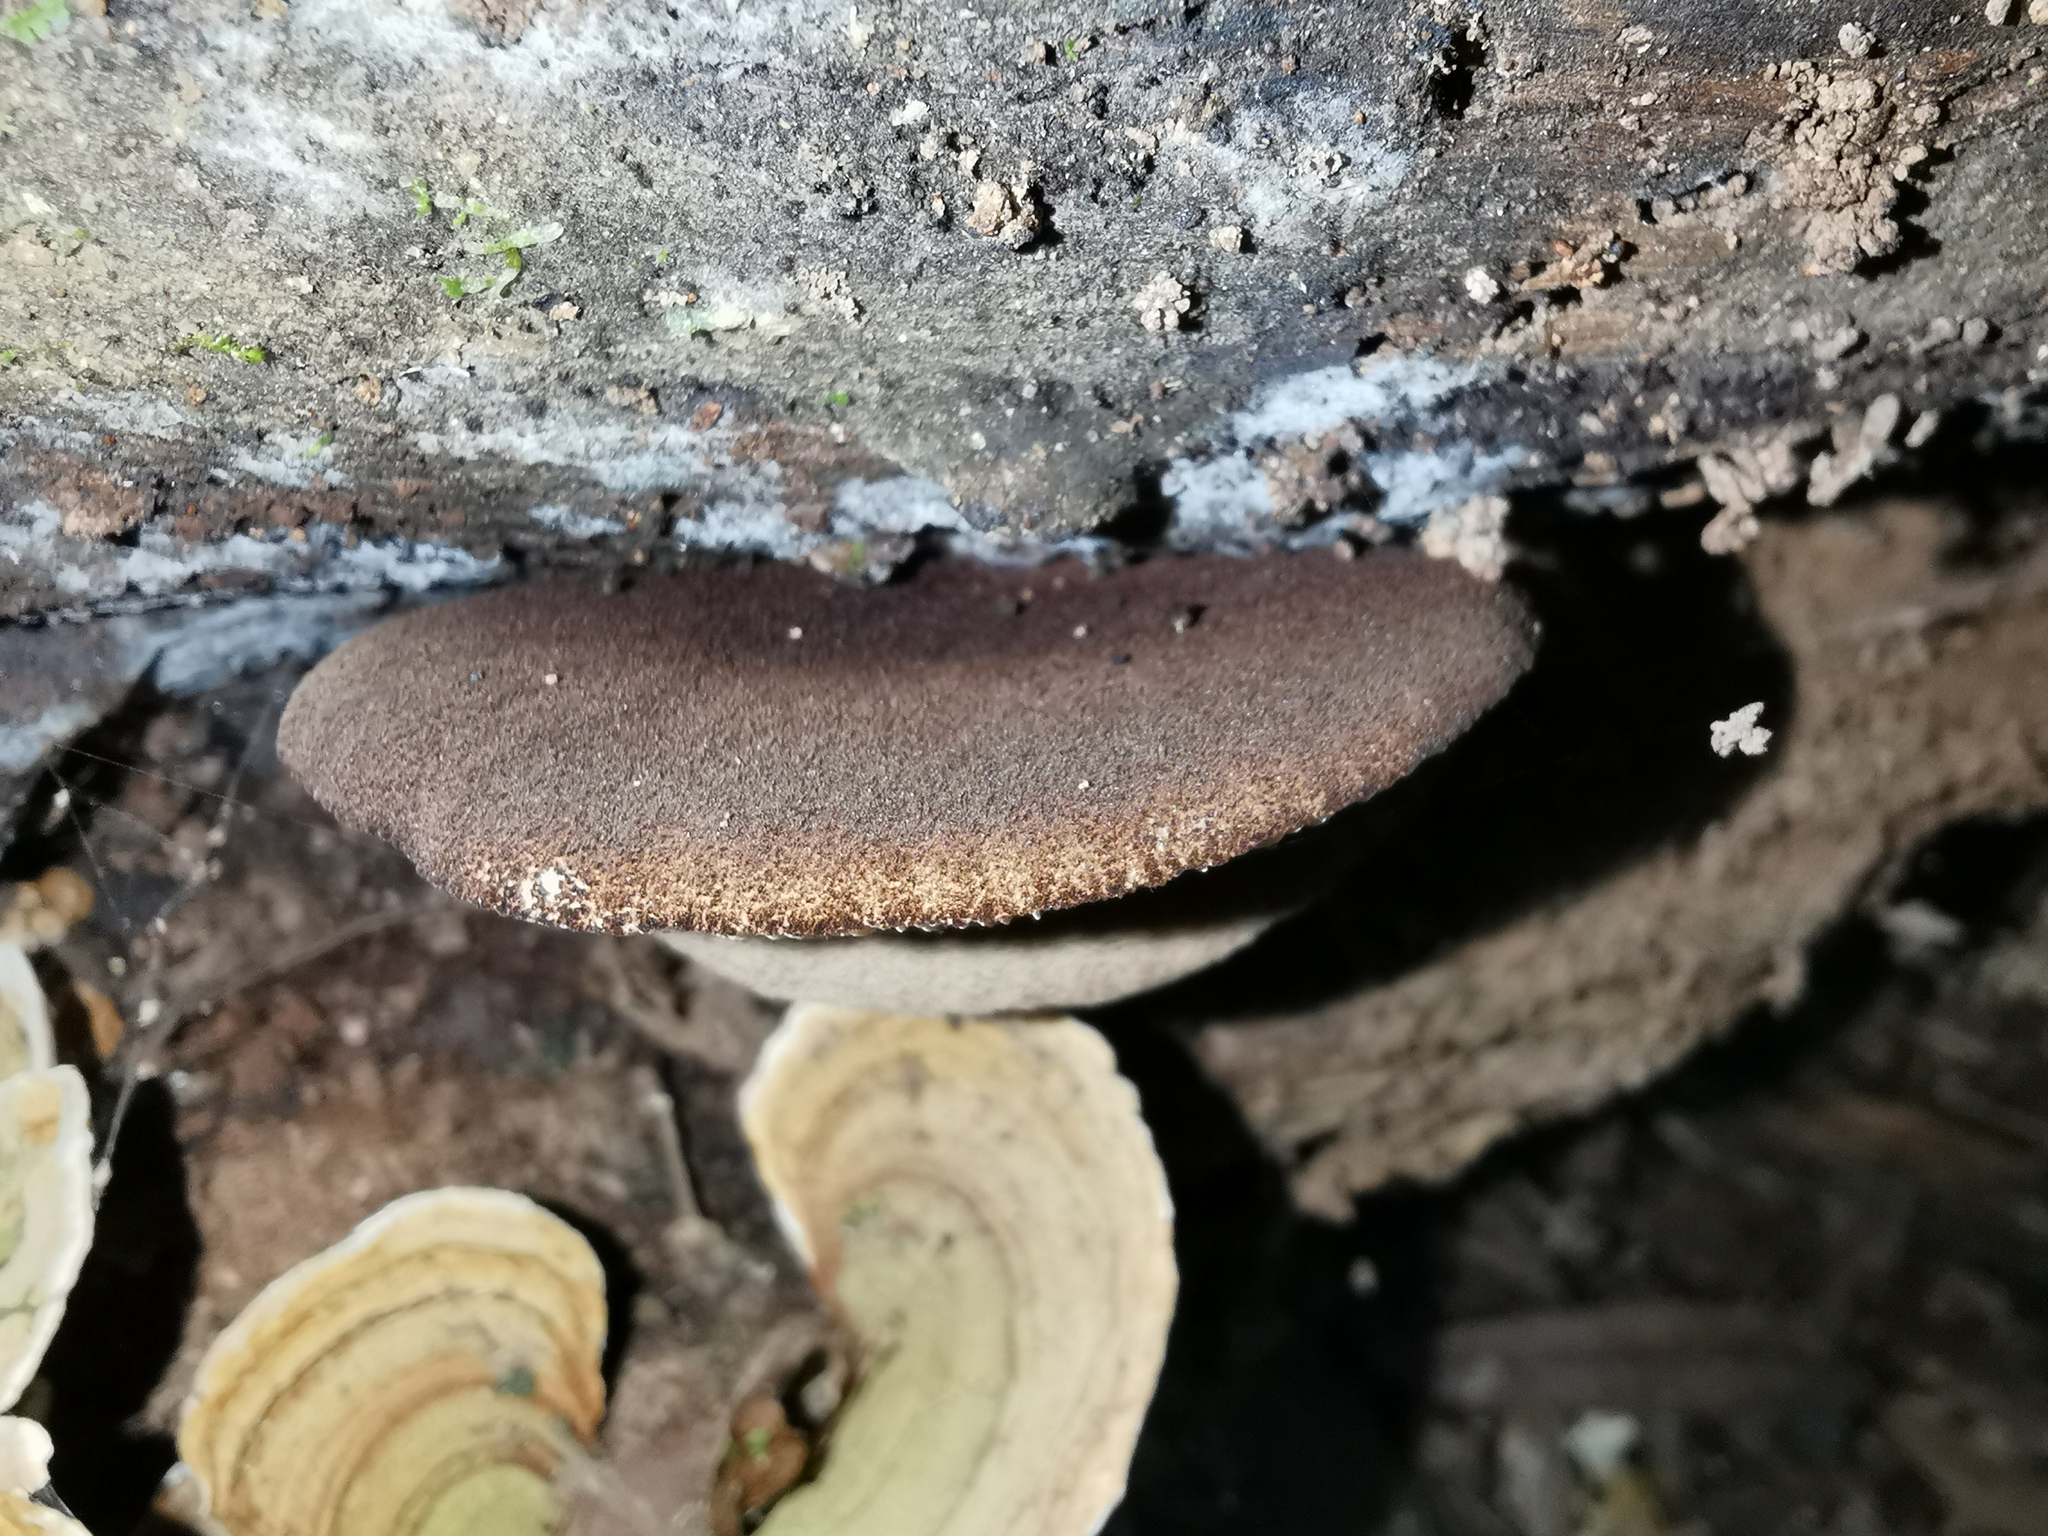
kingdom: Fungi
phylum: Basidiomycota
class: Agaricomycetes
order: Agaricales
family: Crepidotaceae
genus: Crepidotus
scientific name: Crepidotus fuscovelutinus
